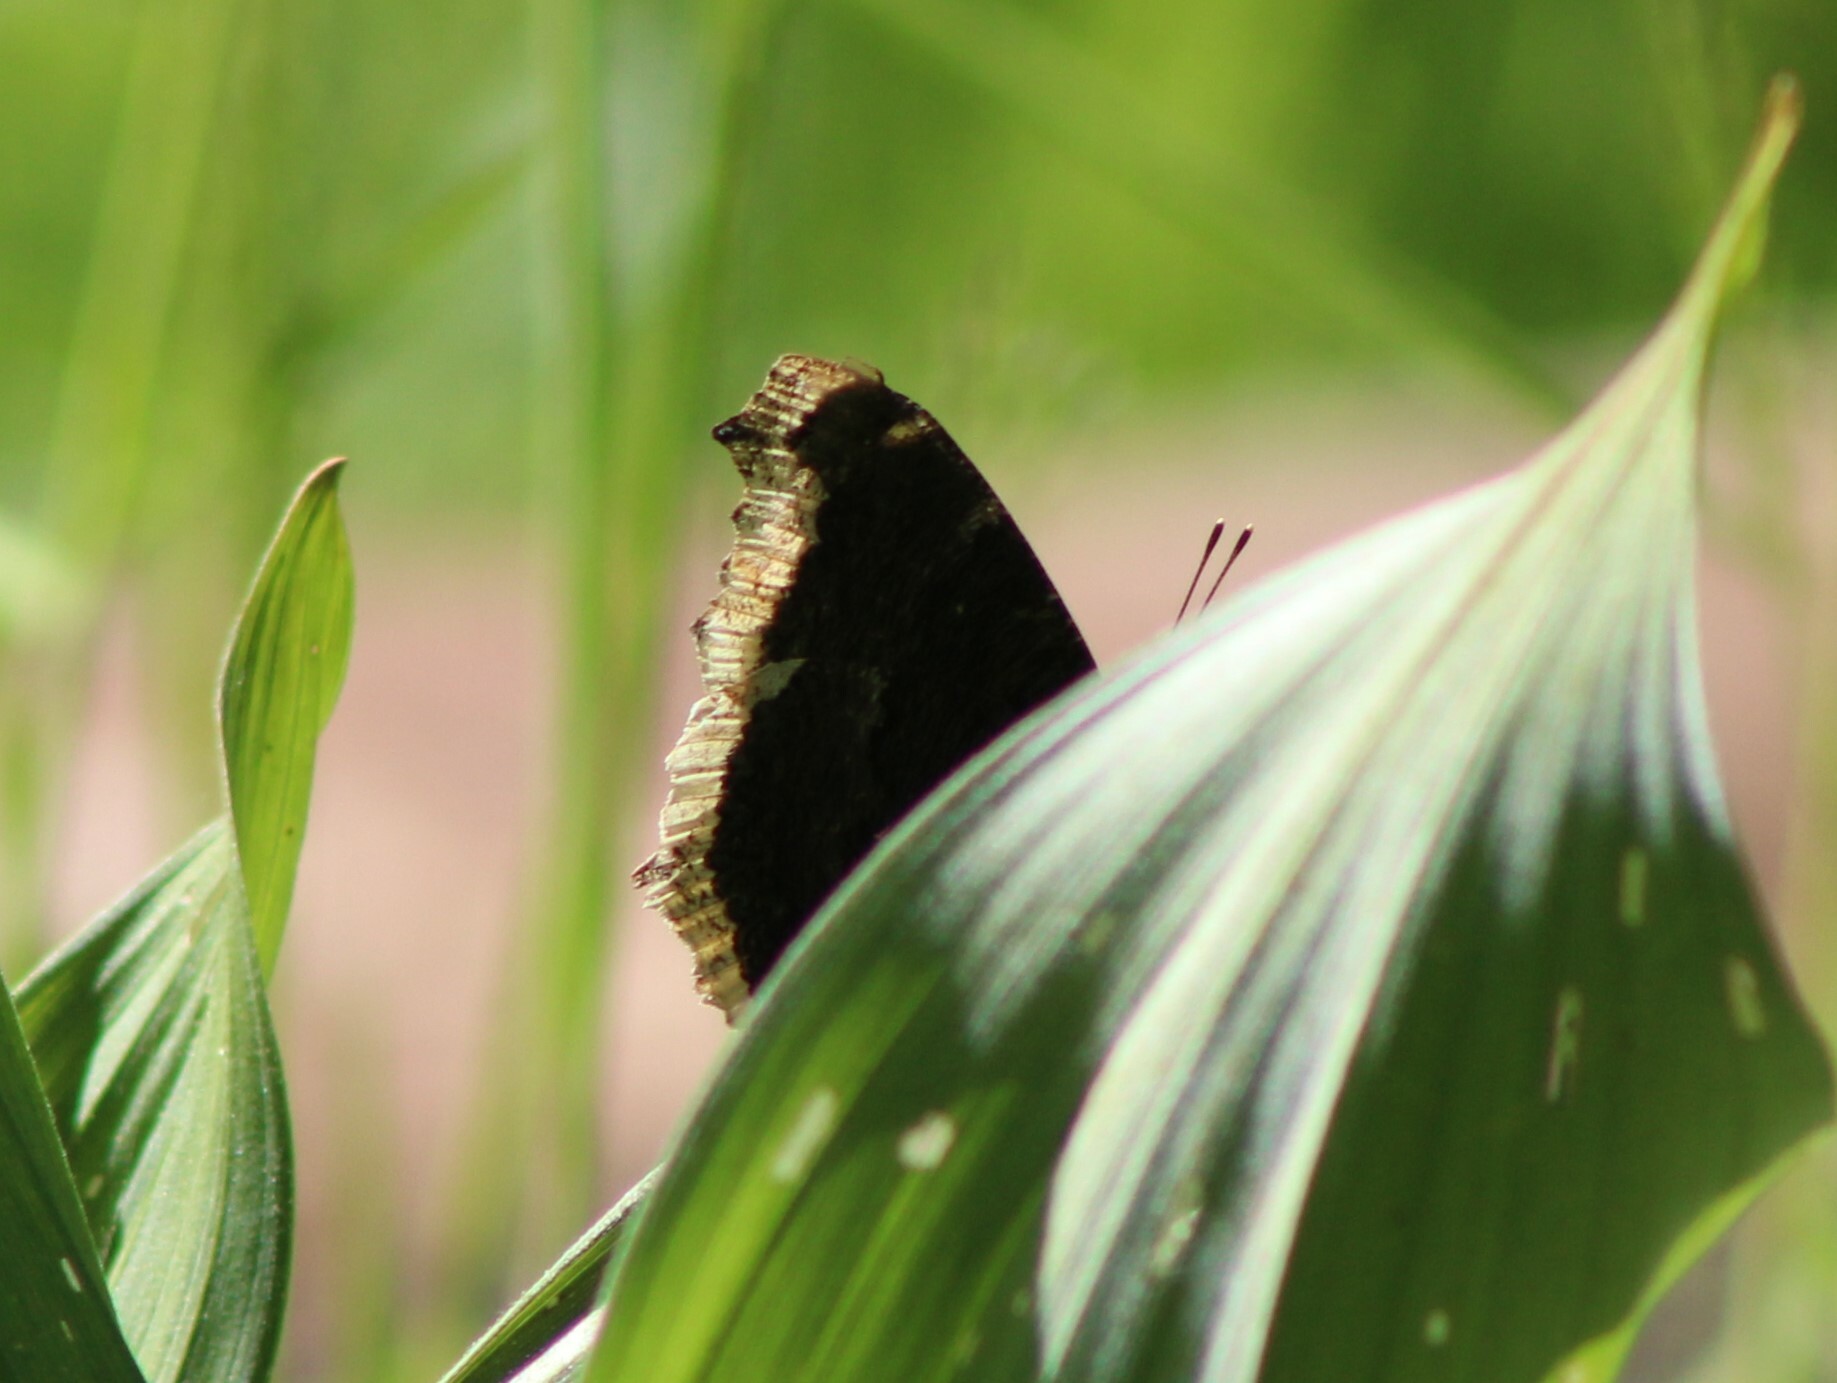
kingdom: Animalia
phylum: Arthropoda
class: Insecta
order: Lepidoptera
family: Nymphalidae
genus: Nymphalis
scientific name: Nymphalis antiopa
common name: Camberwell beauty
